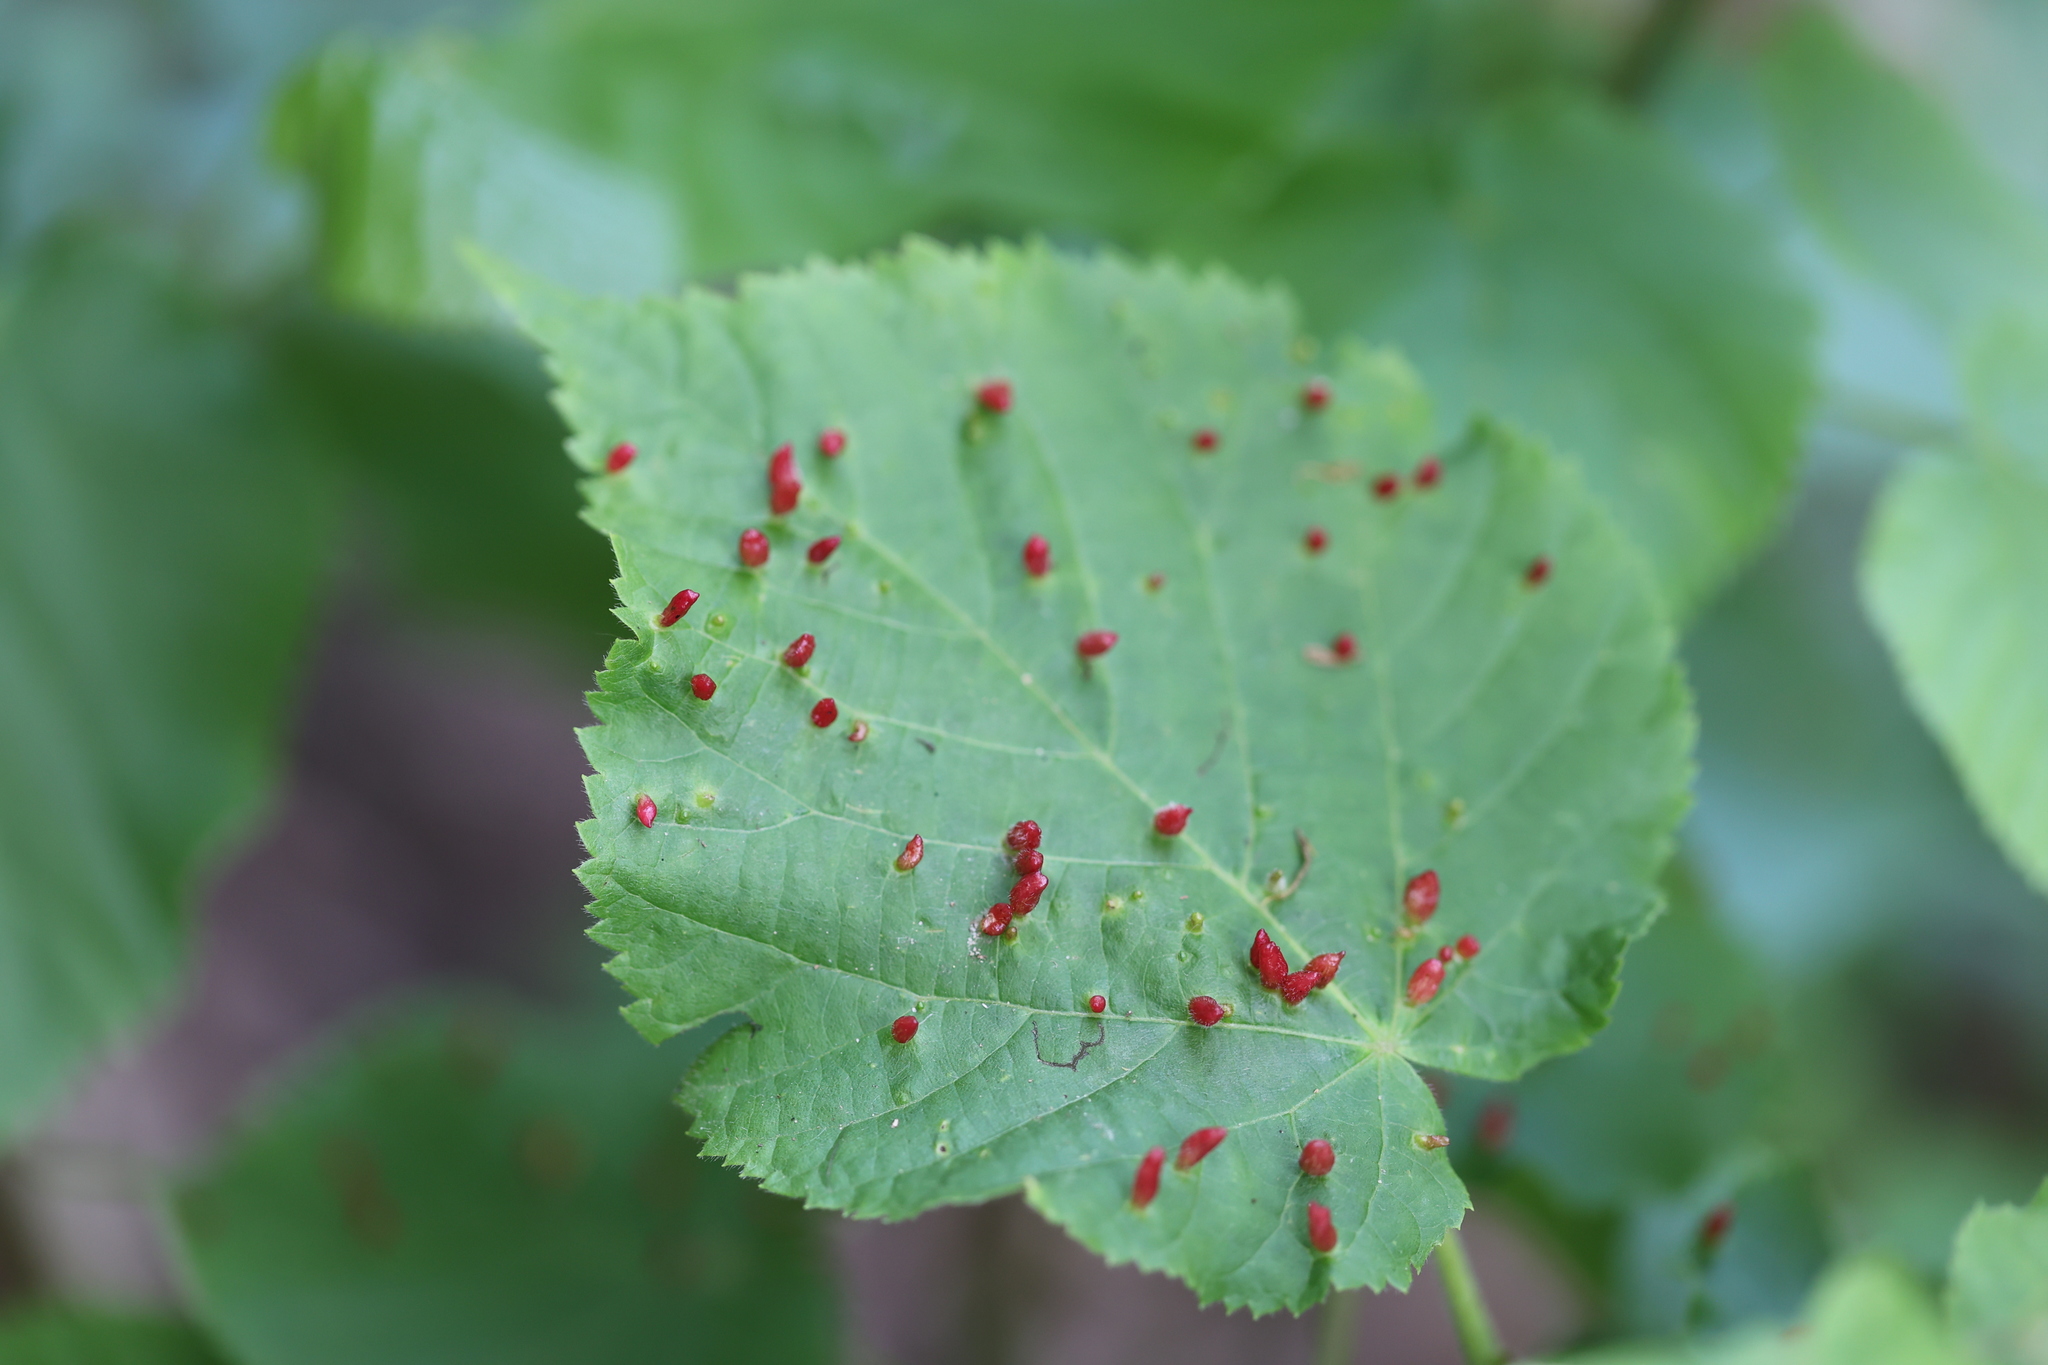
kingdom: Animalia
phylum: Arthropoda
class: Arachnida
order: Trombidiformes
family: Eriophyidae
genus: Eriophyes
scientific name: Eriophyes tiliae
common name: Red nail gall mite
